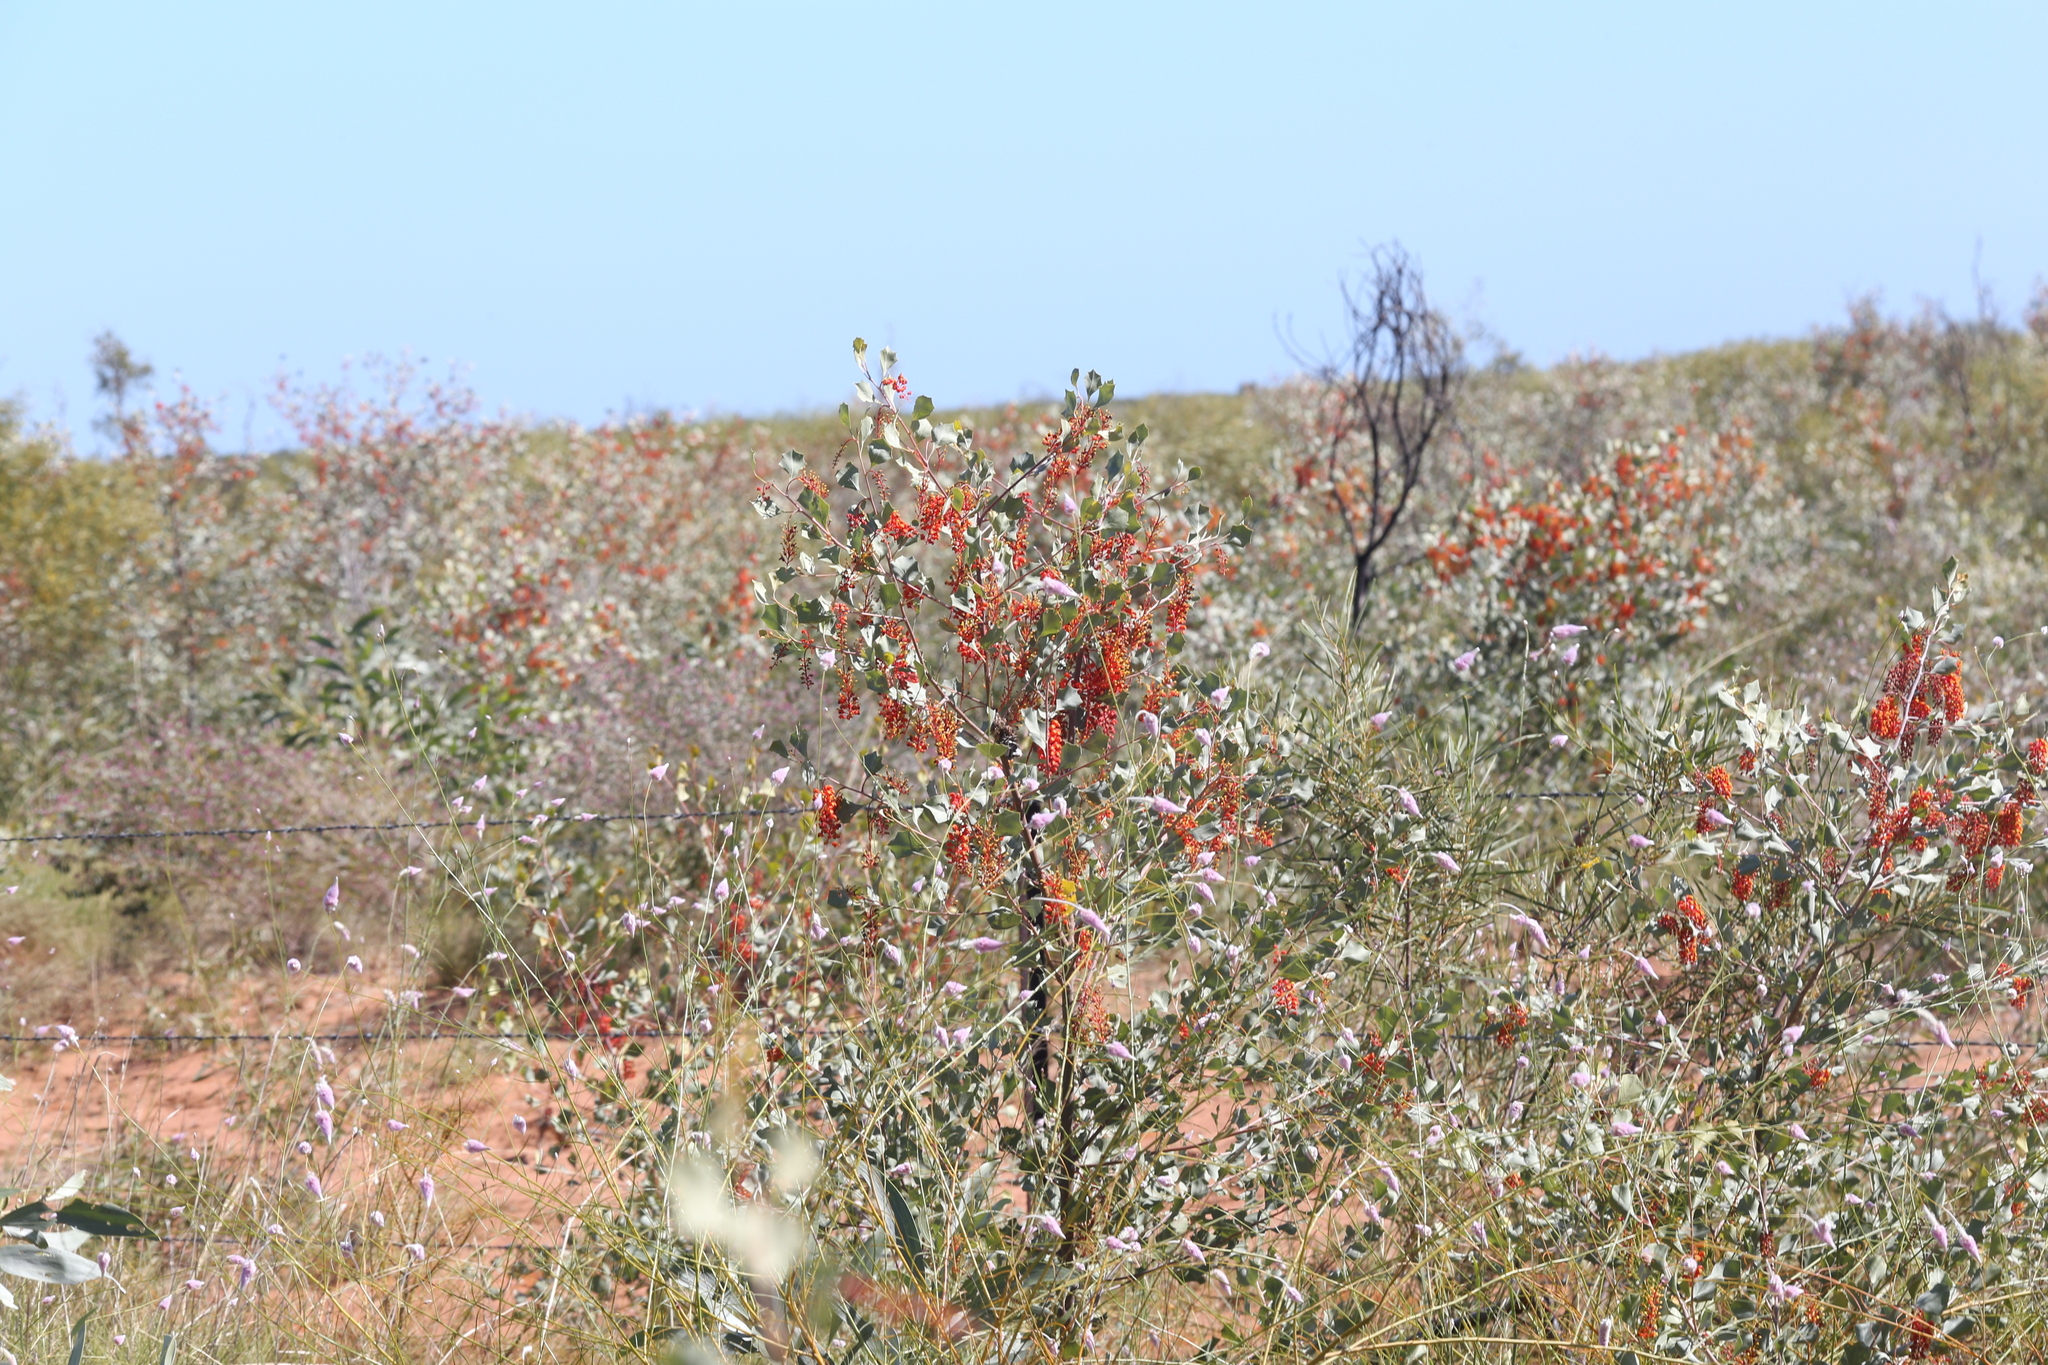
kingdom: Plantae
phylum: Tracheophyta
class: Magnoliopsida
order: Proteales
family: Proteaceae
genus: Grevillea
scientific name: Grevillea wickhamii
